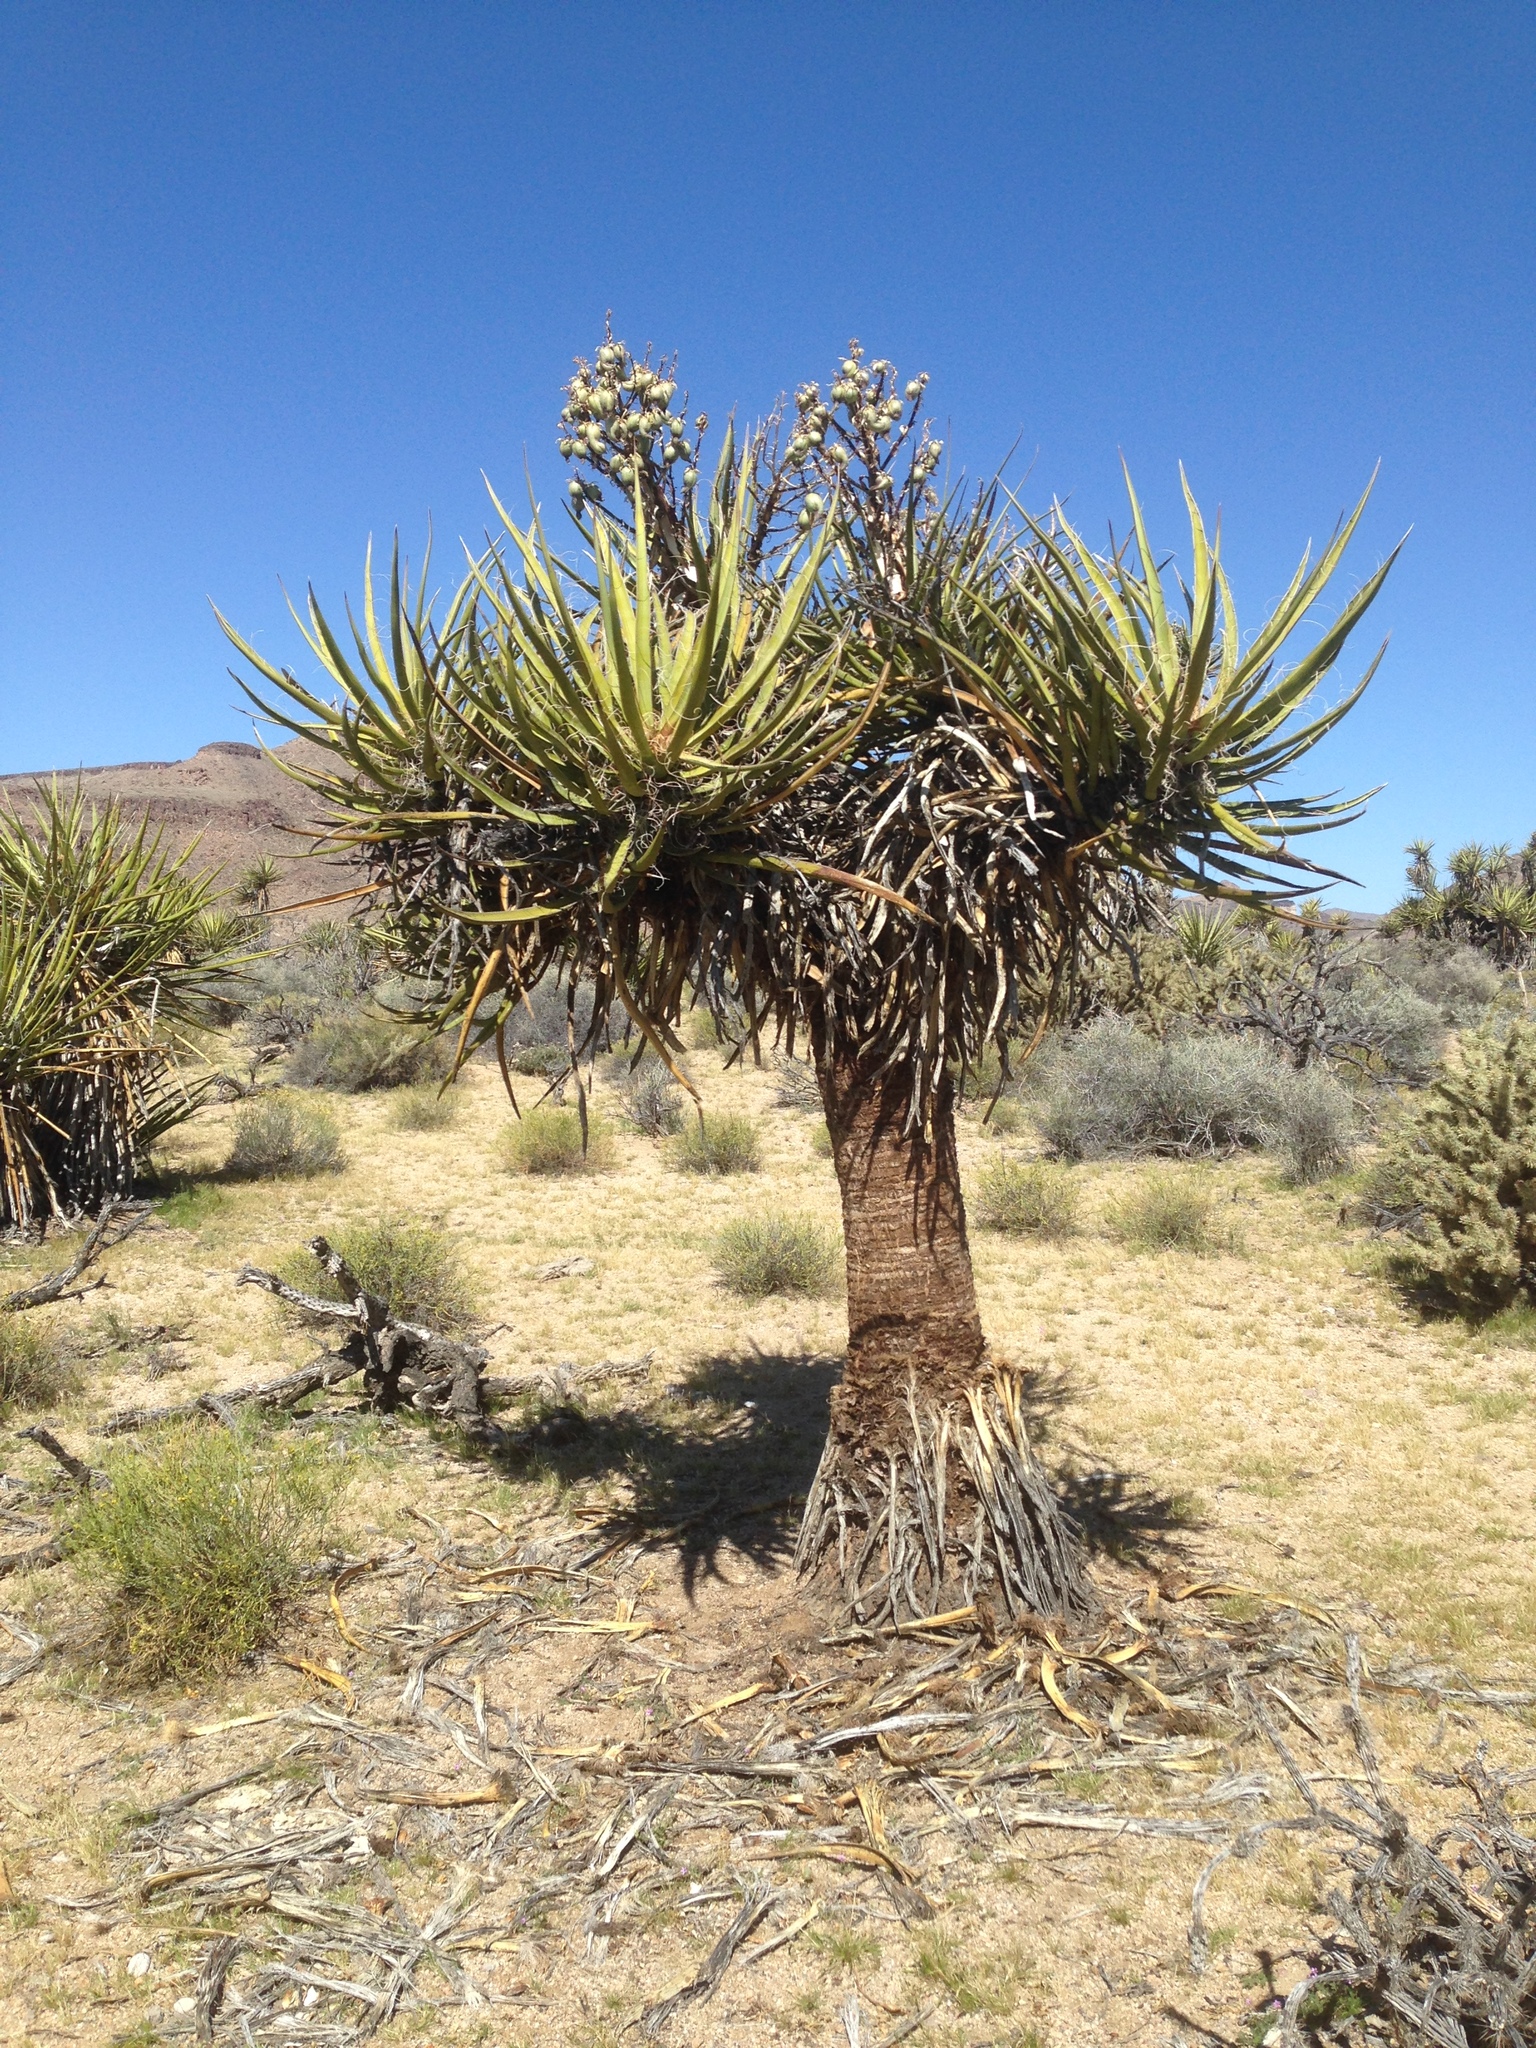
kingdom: Plantae
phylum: Tracheophyta
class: Liliopsida
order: Asparagales
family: Asparagaceae
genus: Yucca
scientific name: Yucca schidigera
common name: Mojave yucca
